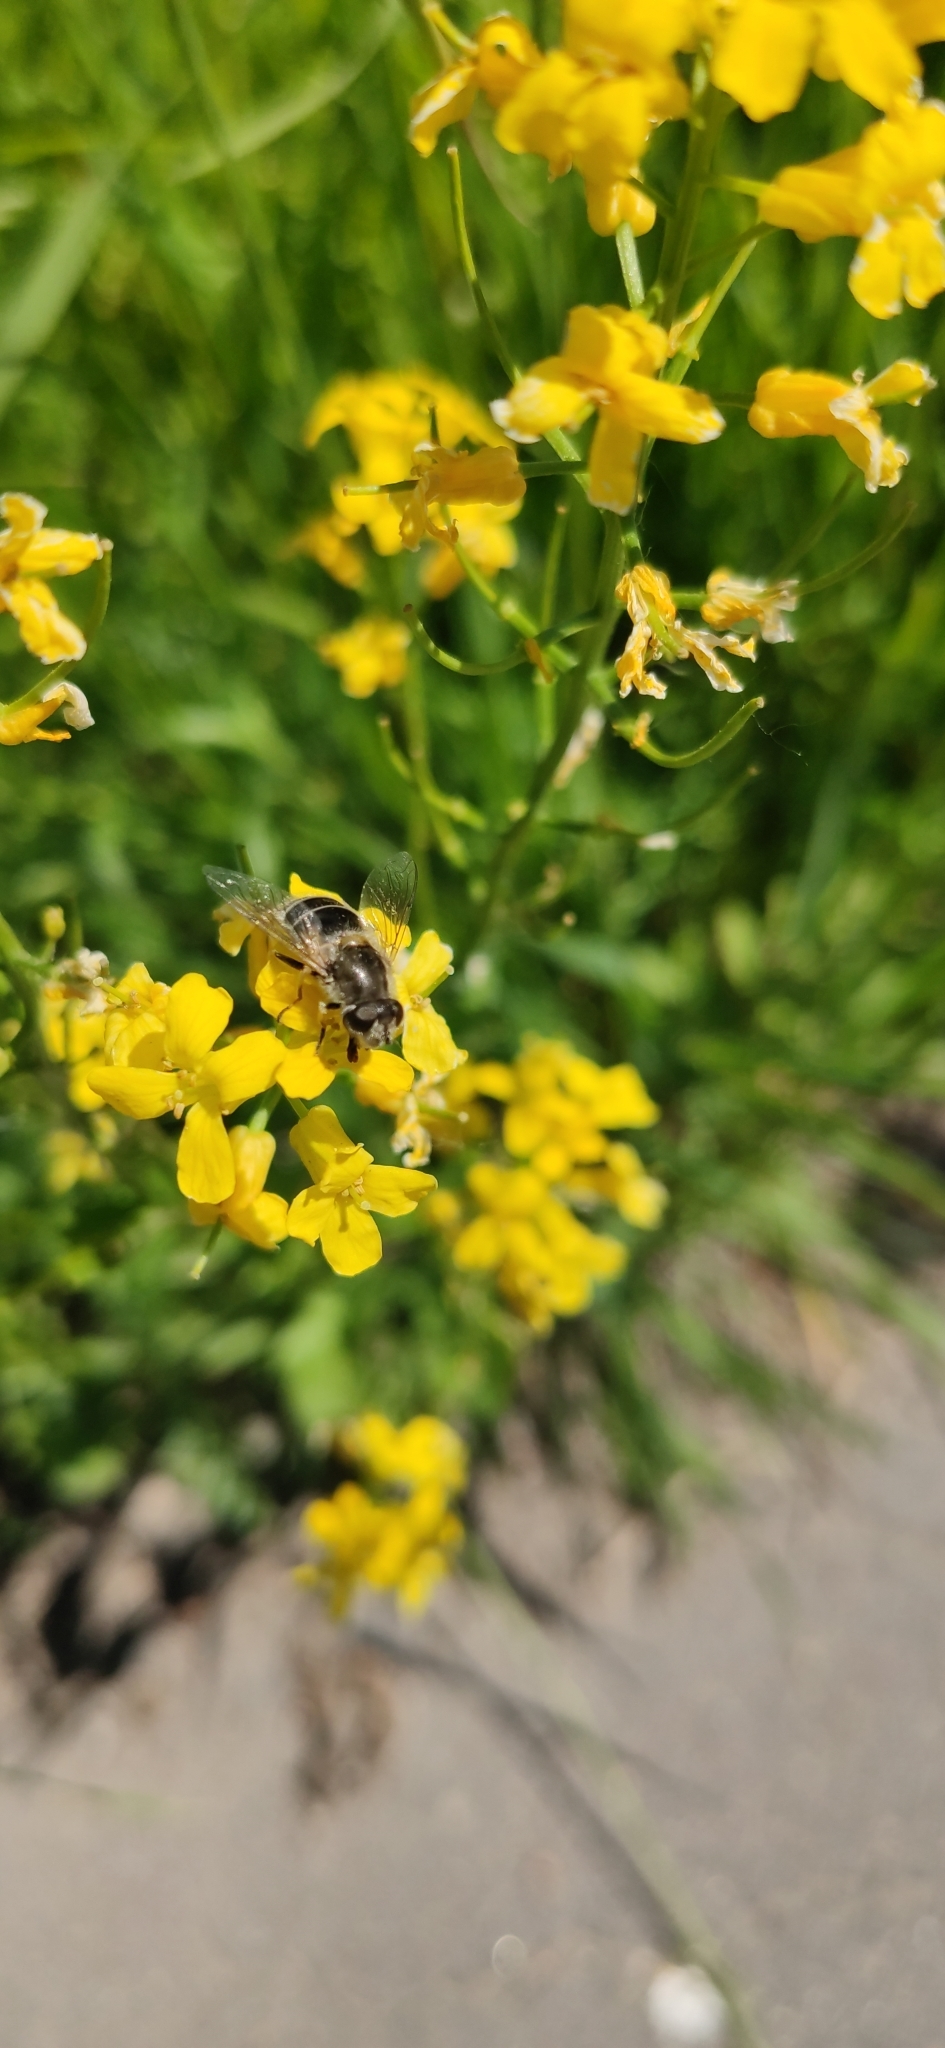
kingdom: Animalia
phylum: Arthropoda
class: Insecta
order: Diptera
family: Syrphidae
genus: Eristalis
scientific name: Eristalis arbustorum
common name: Hover fly
